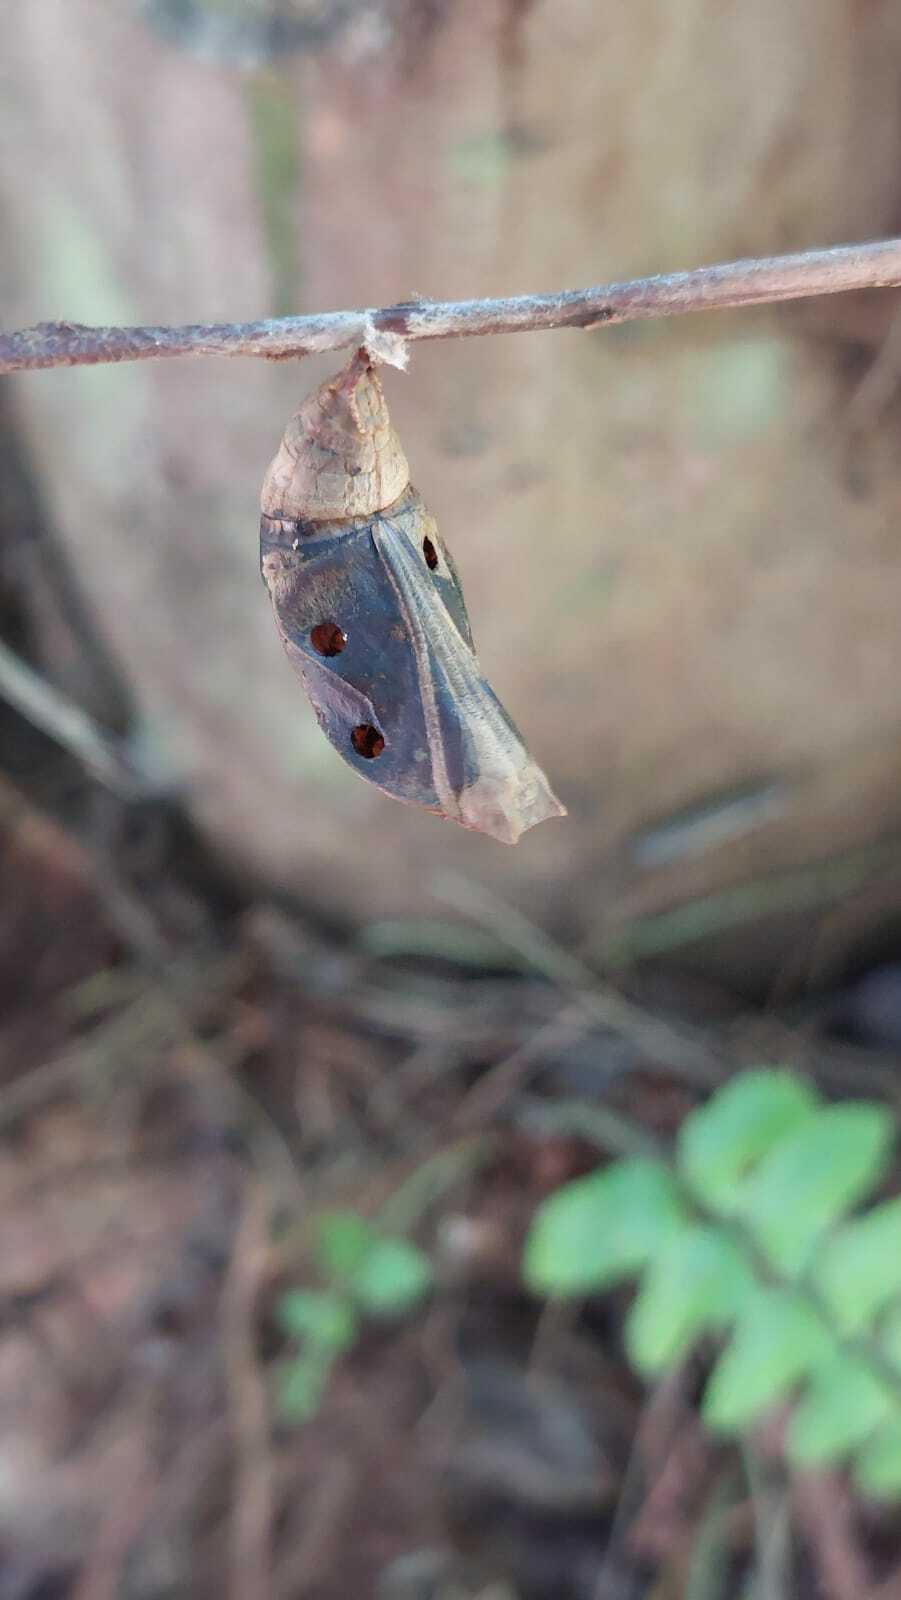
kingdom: Animalia
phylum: Arthropoda
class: Insecta
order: Lepidoptera
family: Nymphalidae
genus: Opsiphanes
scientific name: Opsiphanes cassina
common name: Split-banded owl-butterfly
